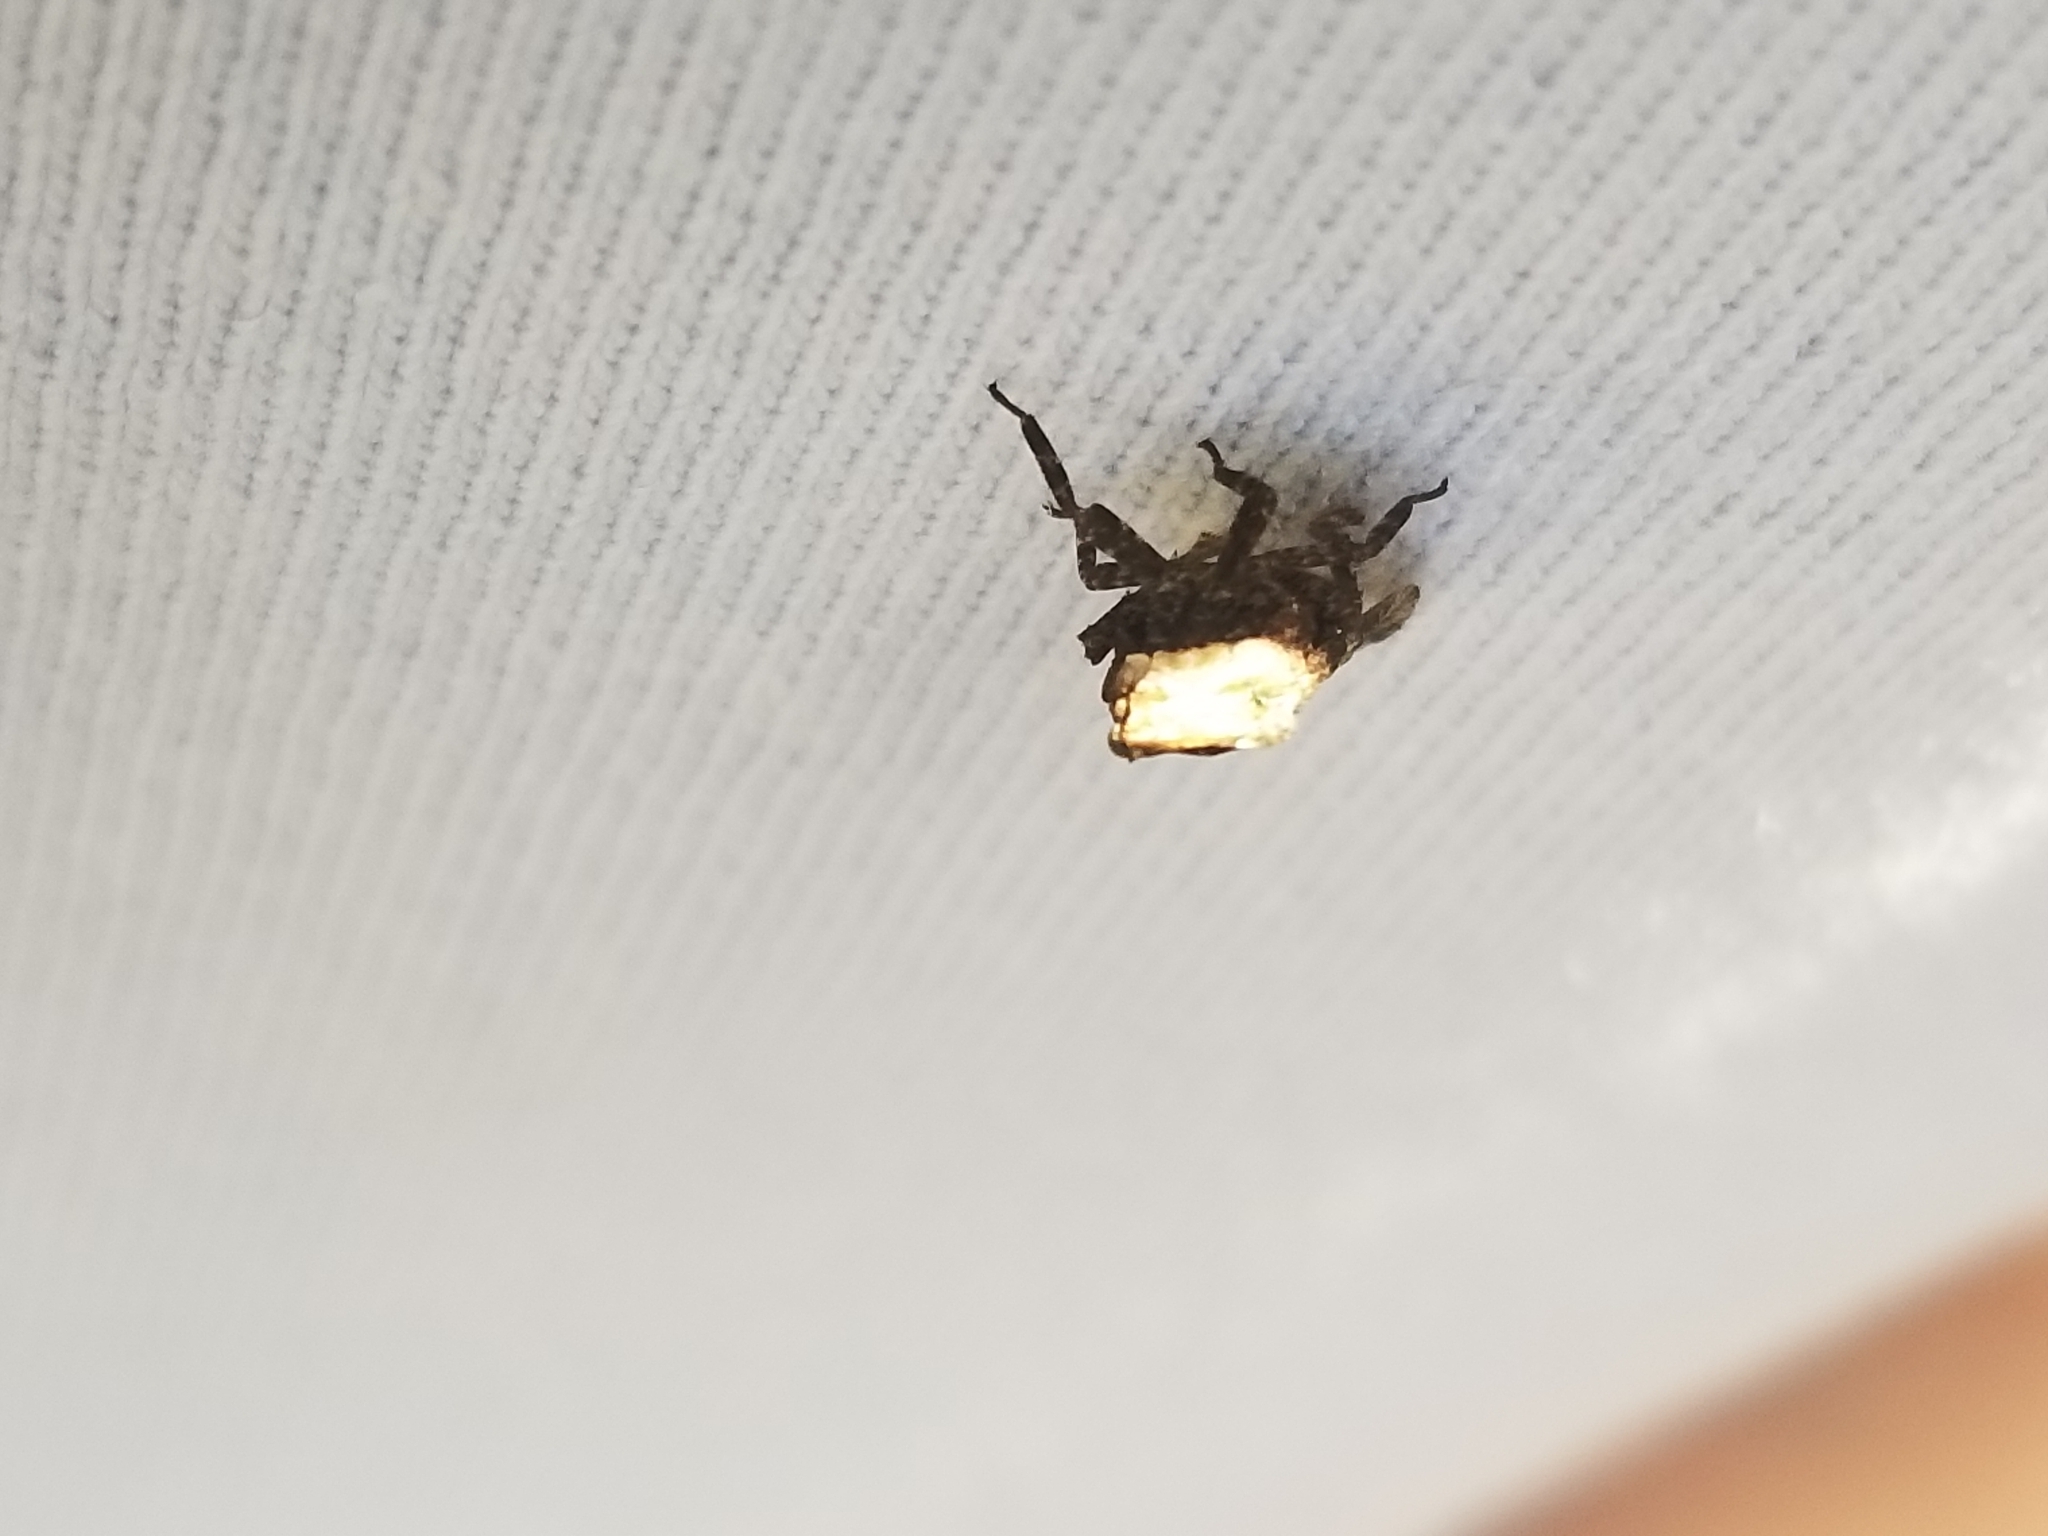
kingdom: Animalia
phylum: Arthropoda
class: Insecta
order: Hemiptera
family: Fulgoridae
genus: Cyrpoptus
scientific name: Cyrpoptus vanduzeei
